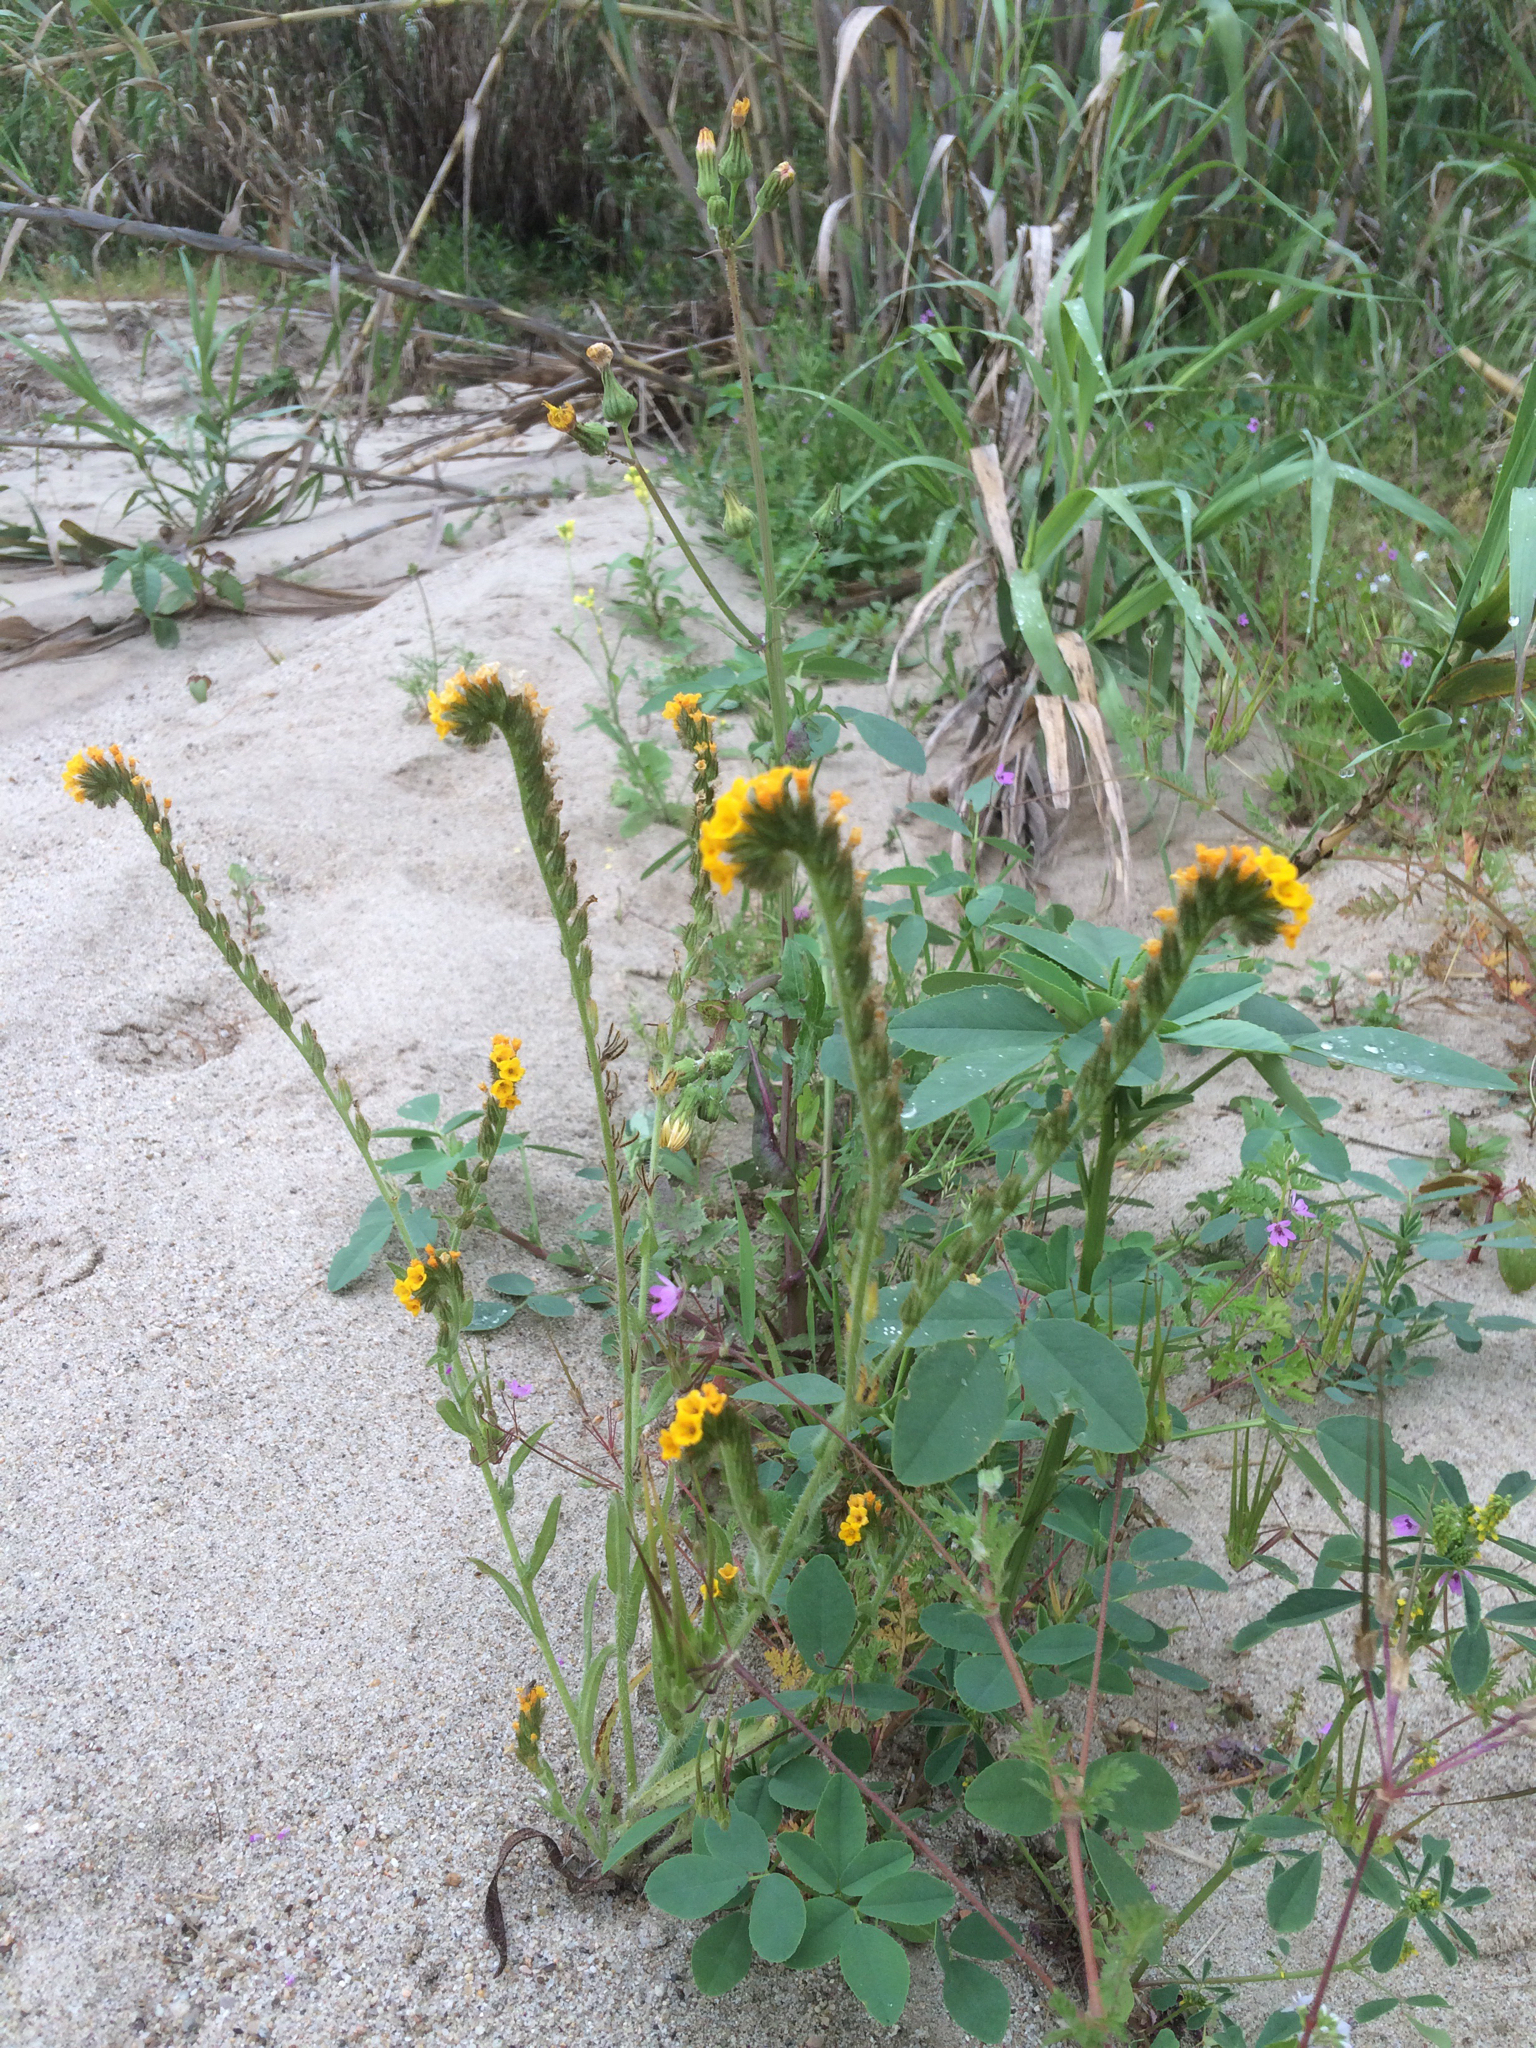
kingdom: Plantae
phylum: Tracheophyta
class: Magnoliopsida
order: Boraginales
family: Boraginaceae
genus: Amsinckia
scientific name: Amsinckia menziesii
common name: Menzies' fiddleneck
